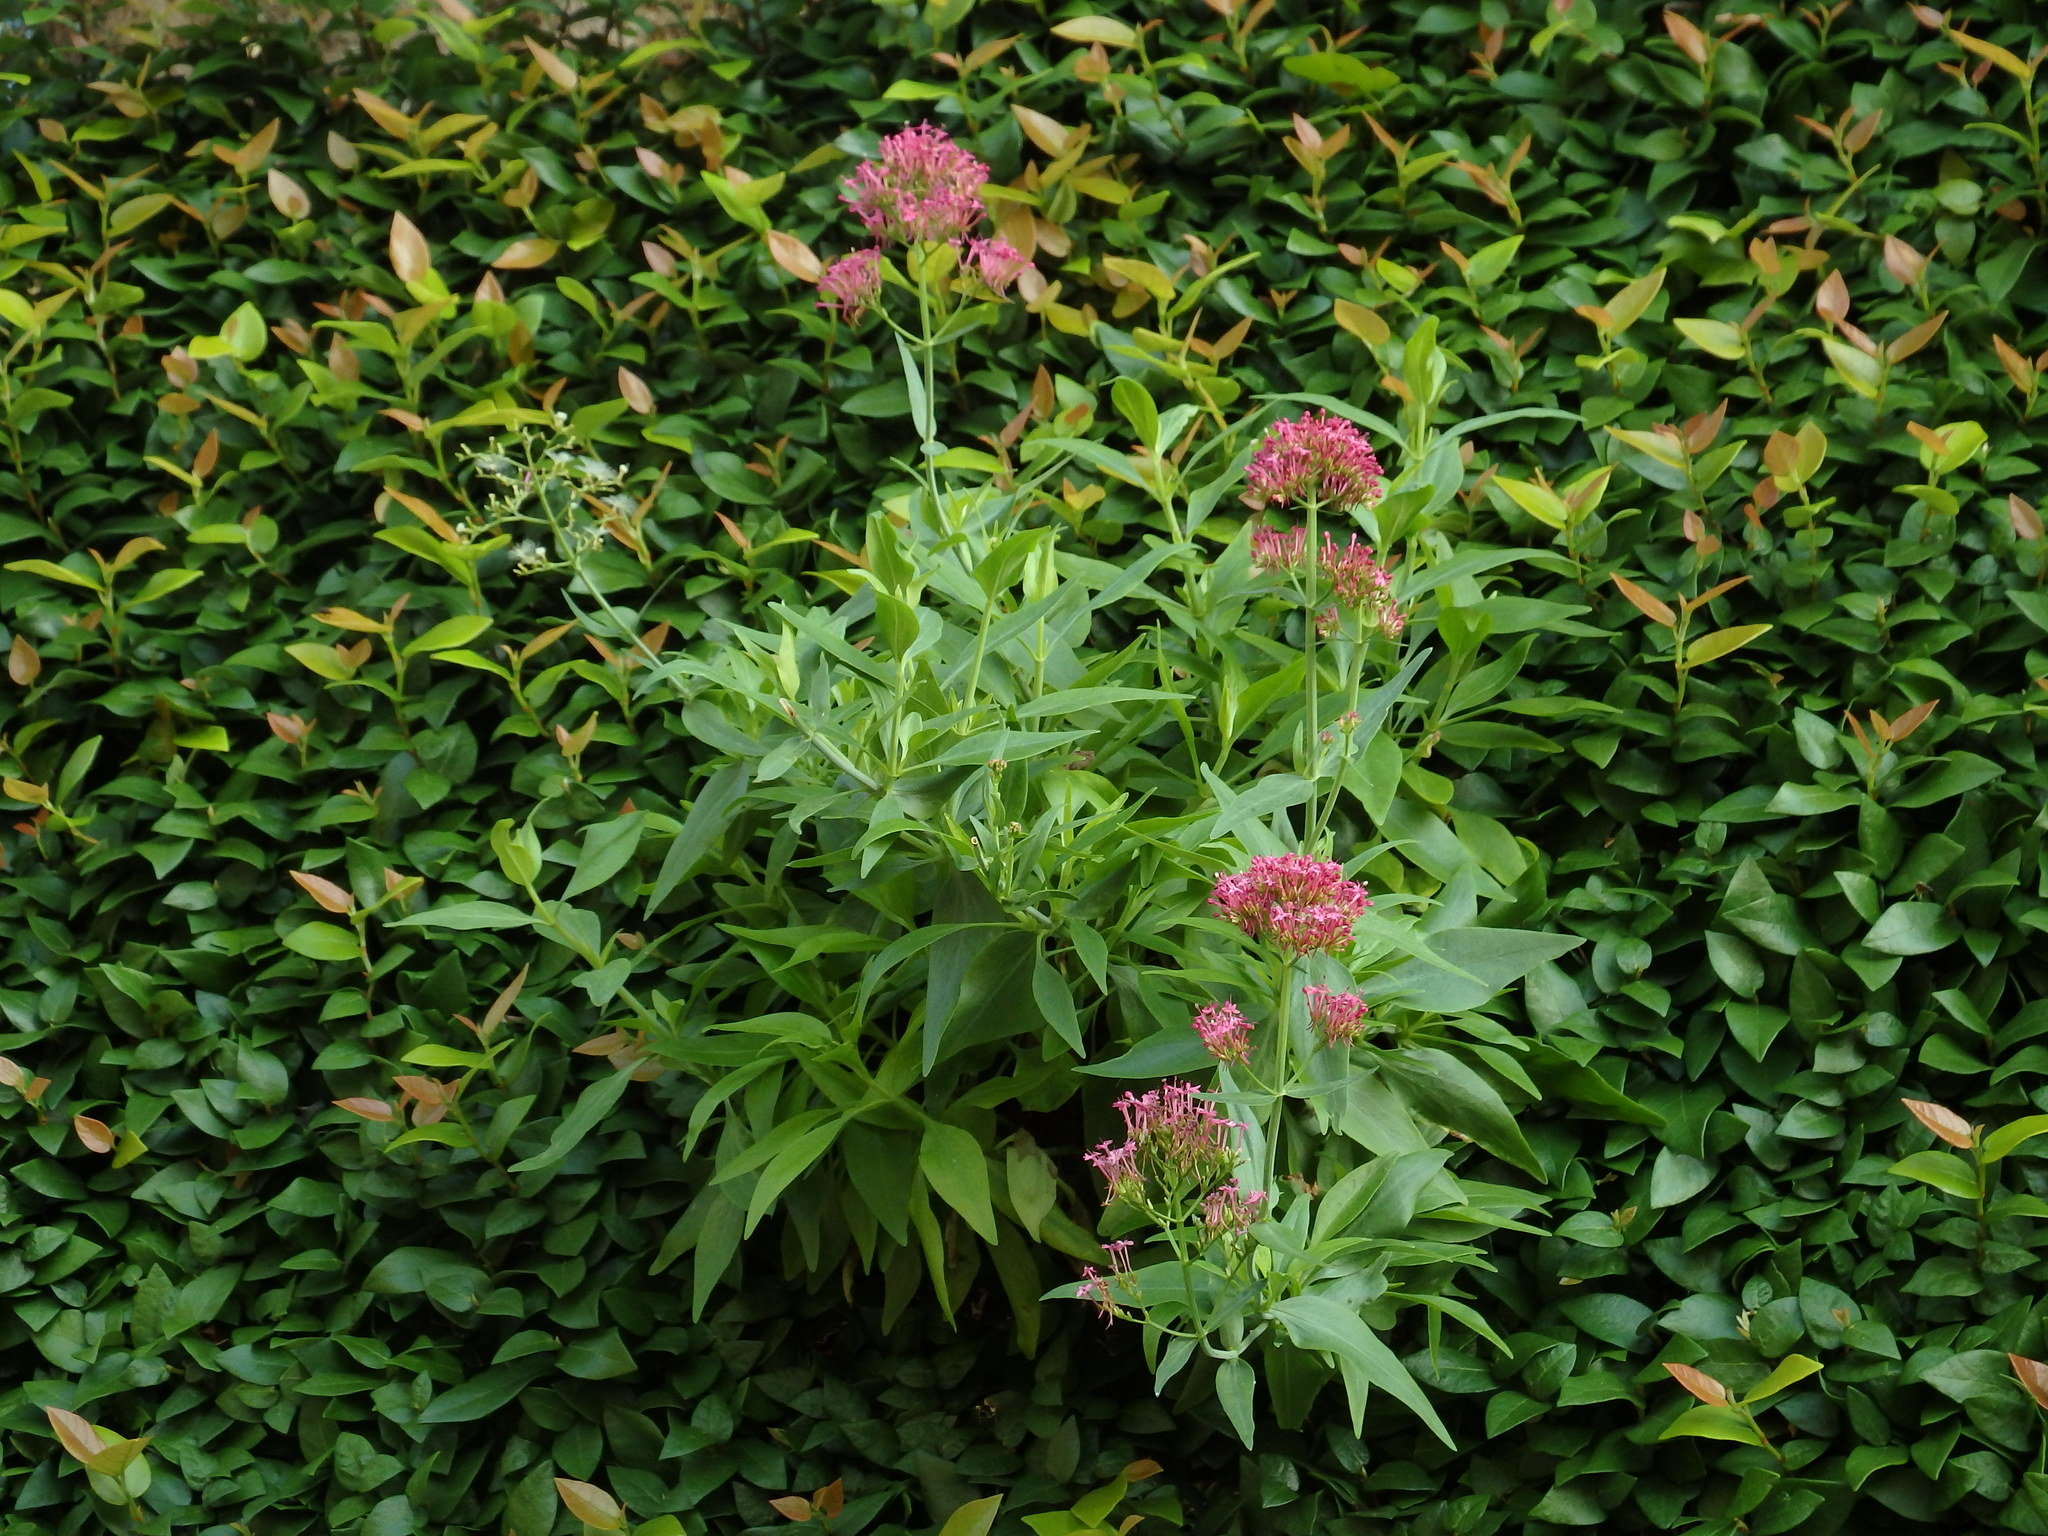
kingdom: Plantae
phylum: Tracheophyta
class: Magnoliopsida
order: Dipsacales
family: Caprifoliaceae
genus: Centranthus
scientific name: Centranthus ruber
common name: Red valerian
